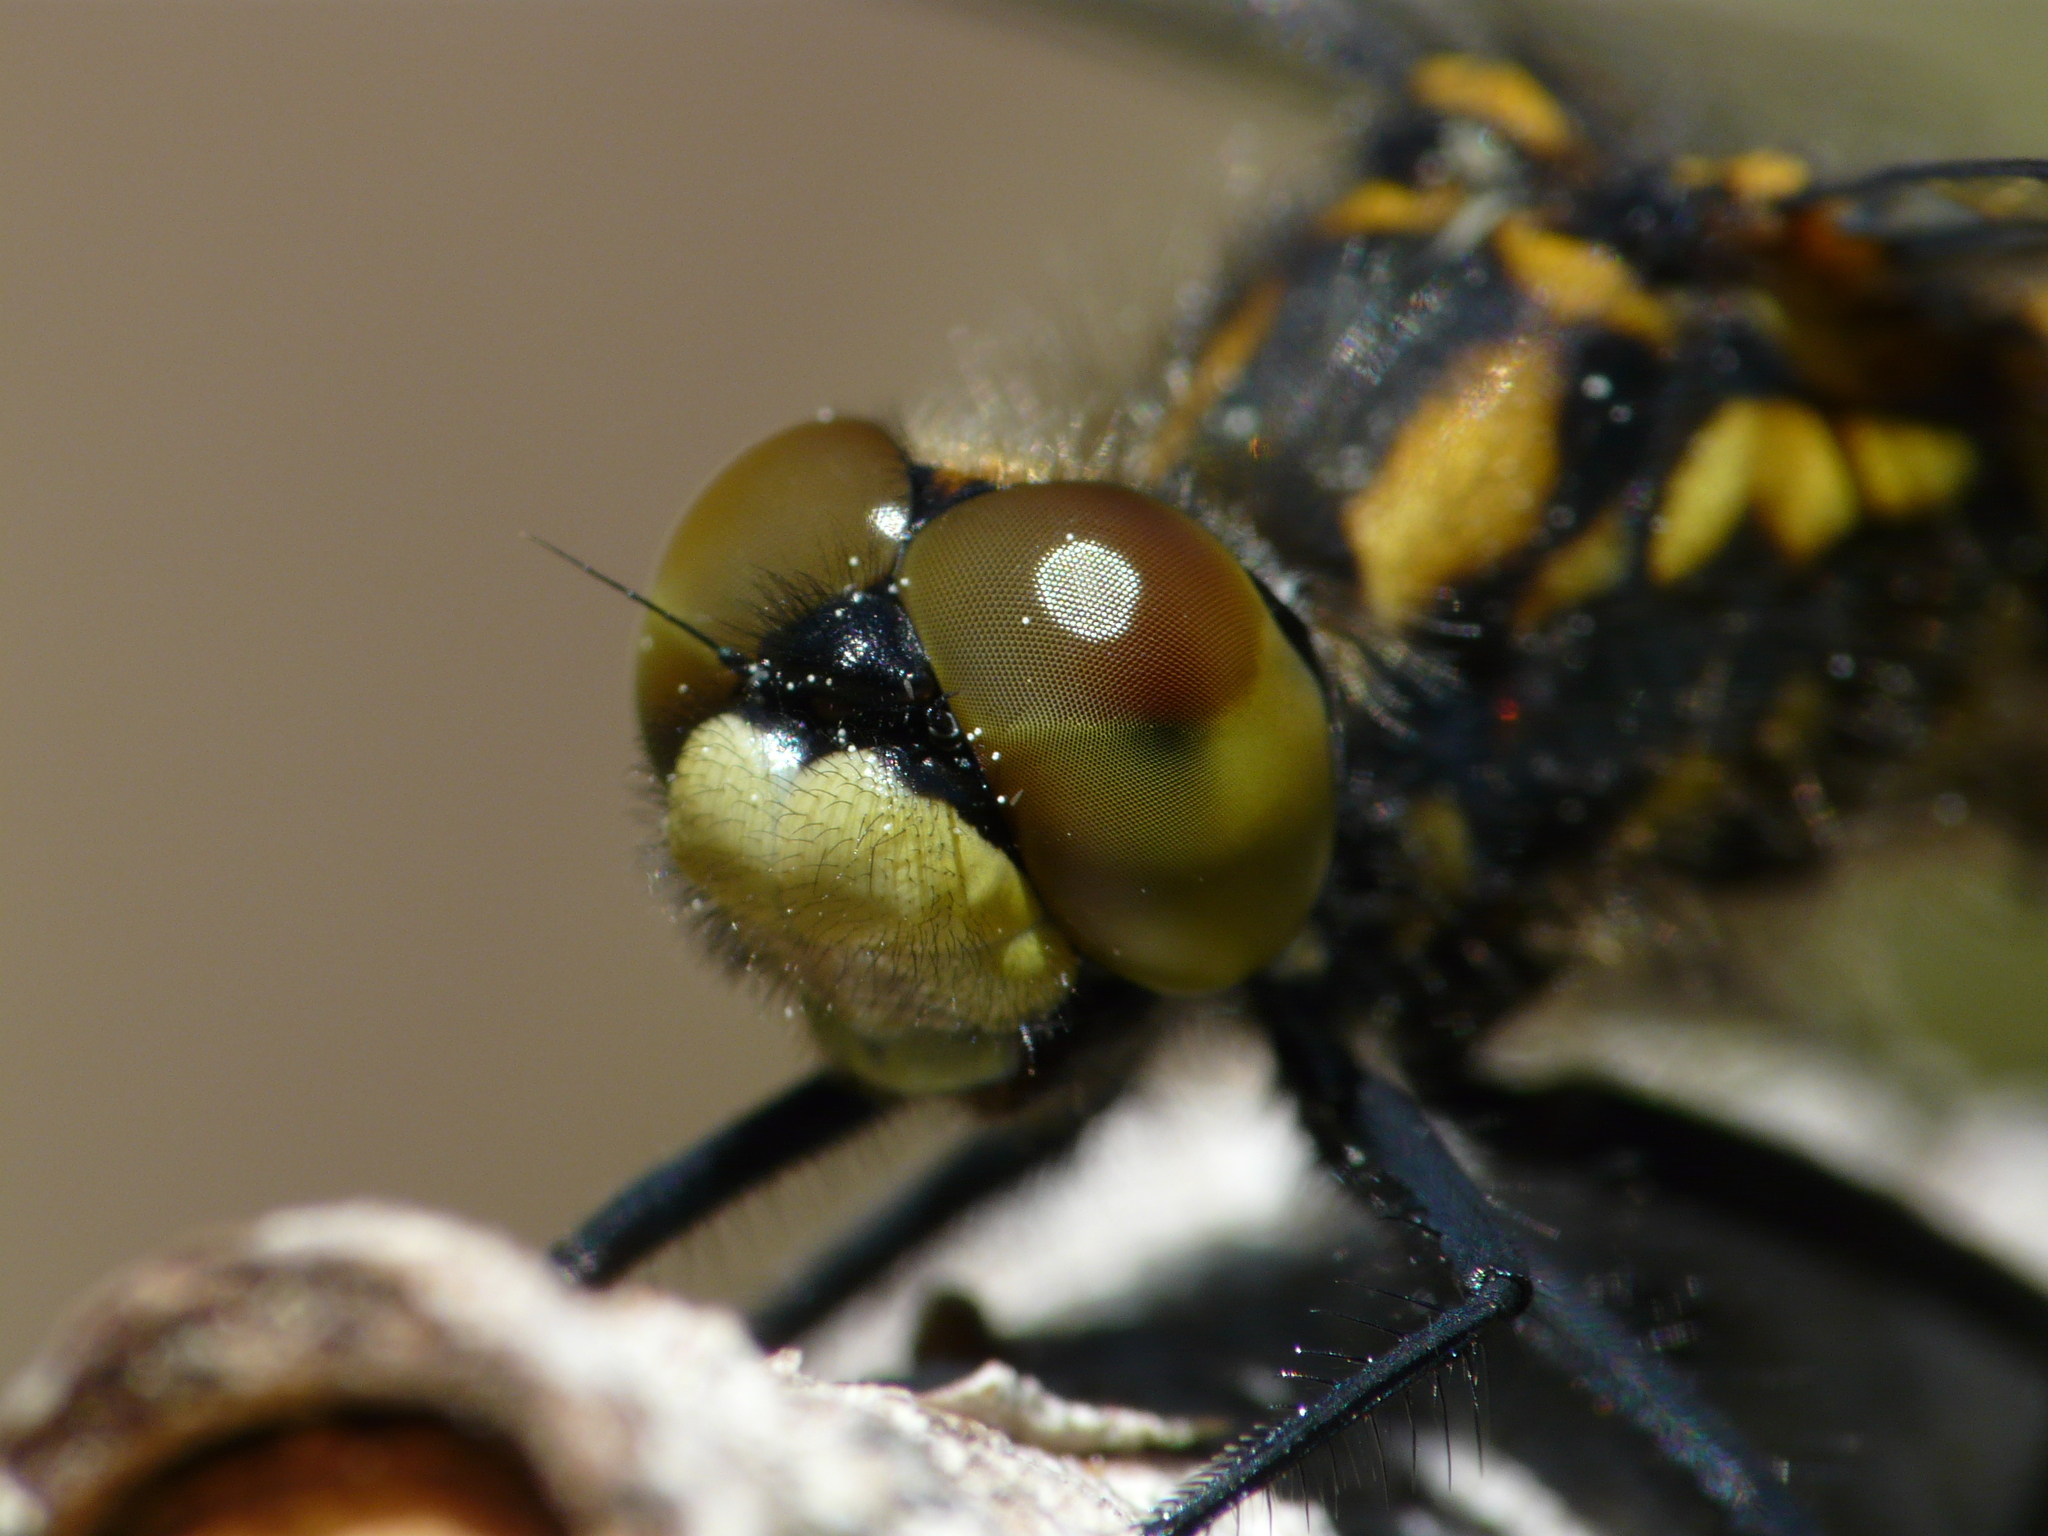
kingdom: Animalia
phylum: Arthropoda
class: Insecta
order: Odonata
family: Libellulidae
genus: Leucorrhinia
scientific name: Leucorrhinia dubia
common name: White-faced darter
